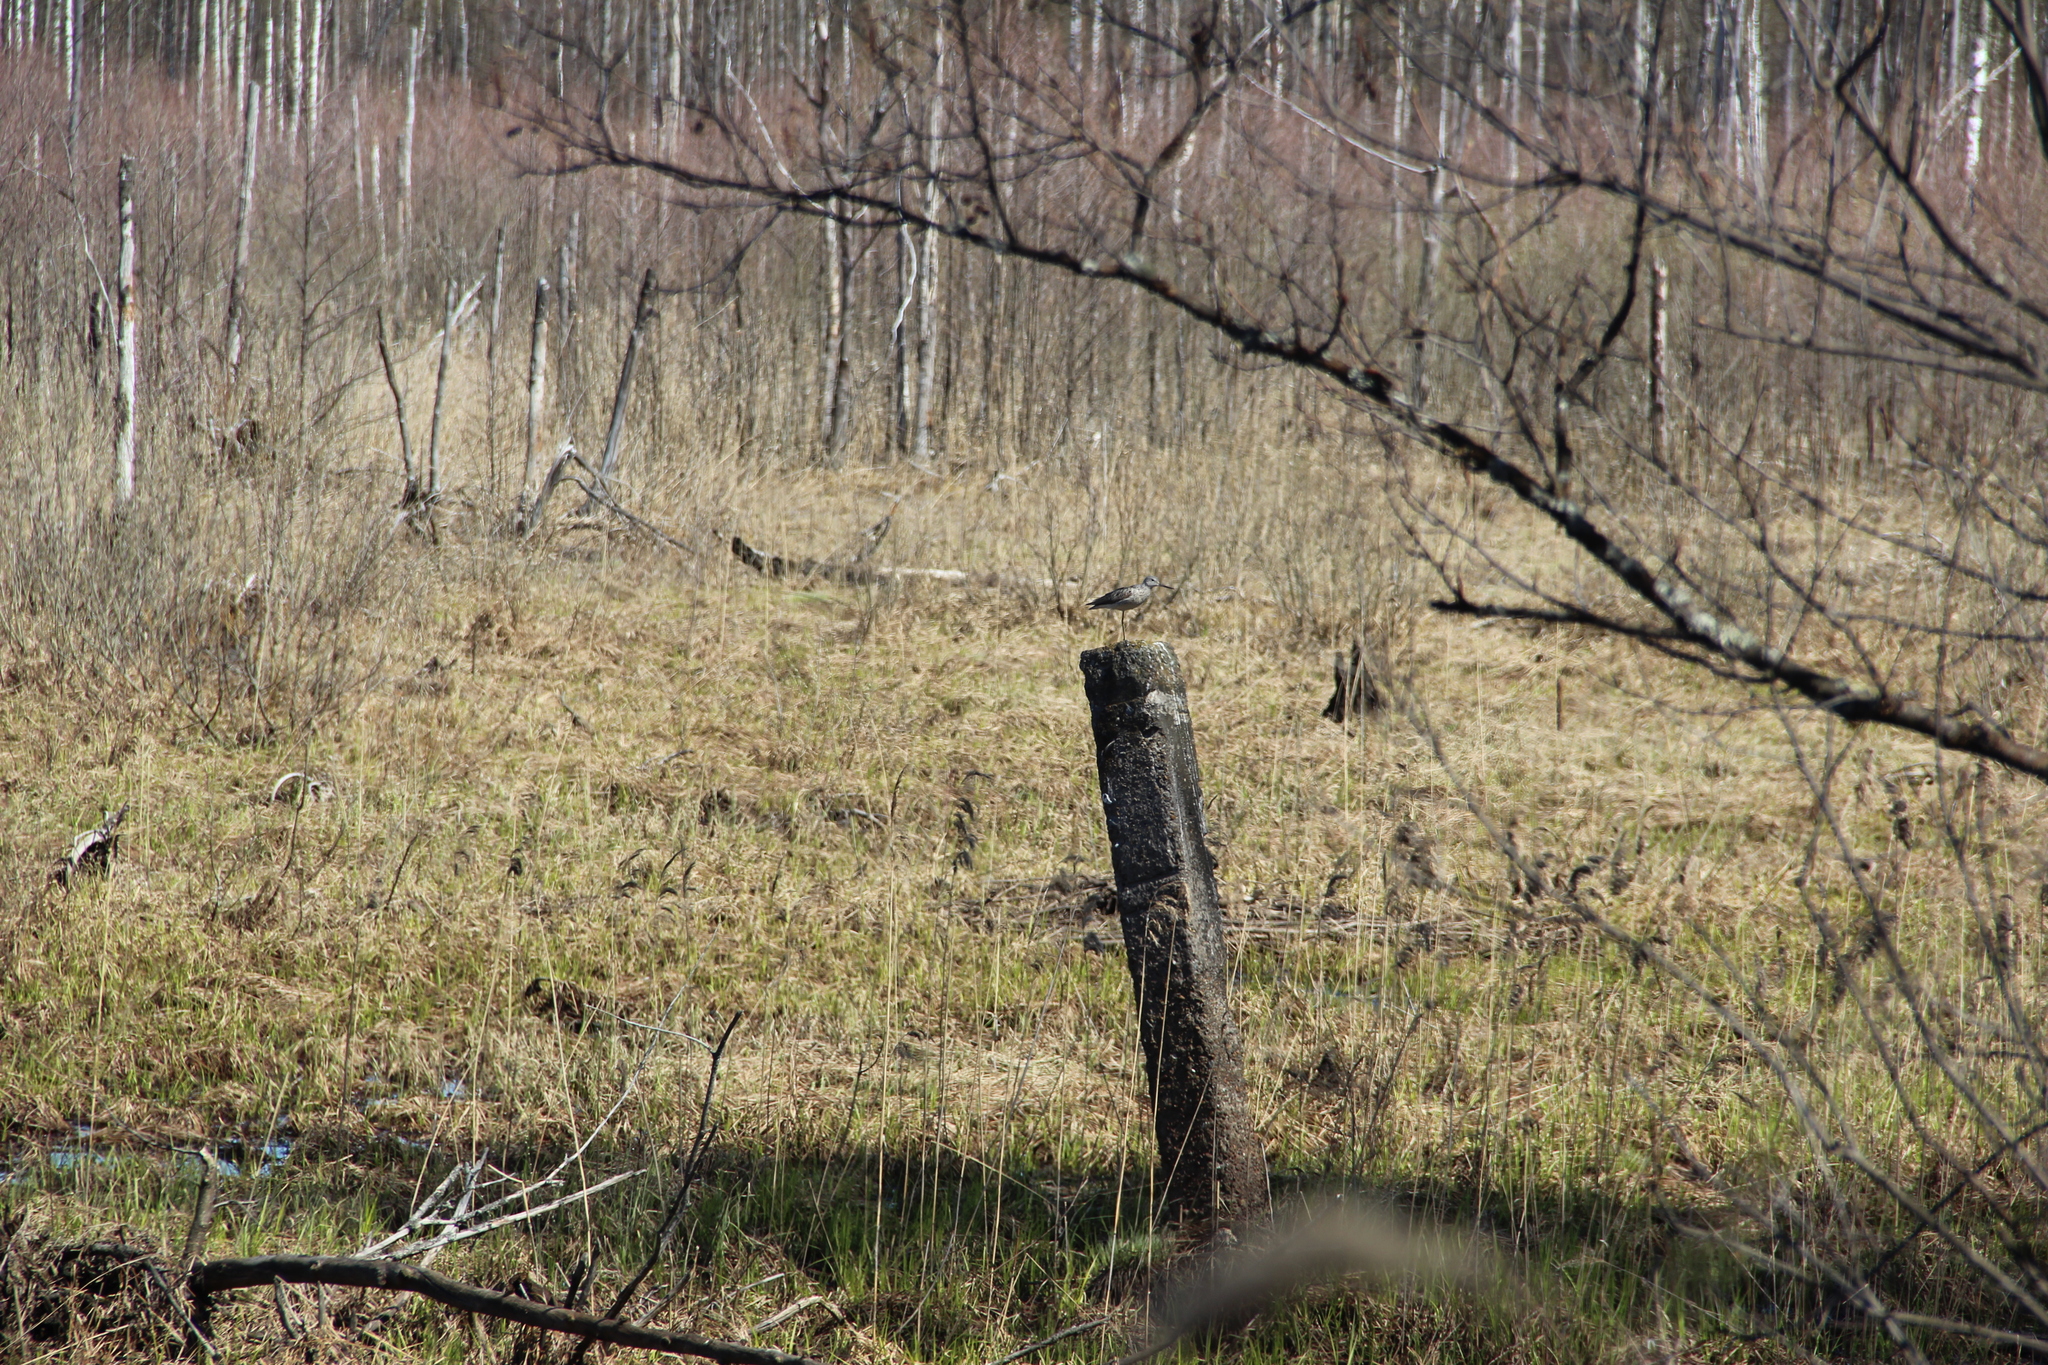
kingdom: Animalia
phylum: Chordata
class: Aves
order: Charadriiformes
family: Scolopacidae
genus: Tringa
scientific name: Tringa nebularia
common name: Common greenshank
